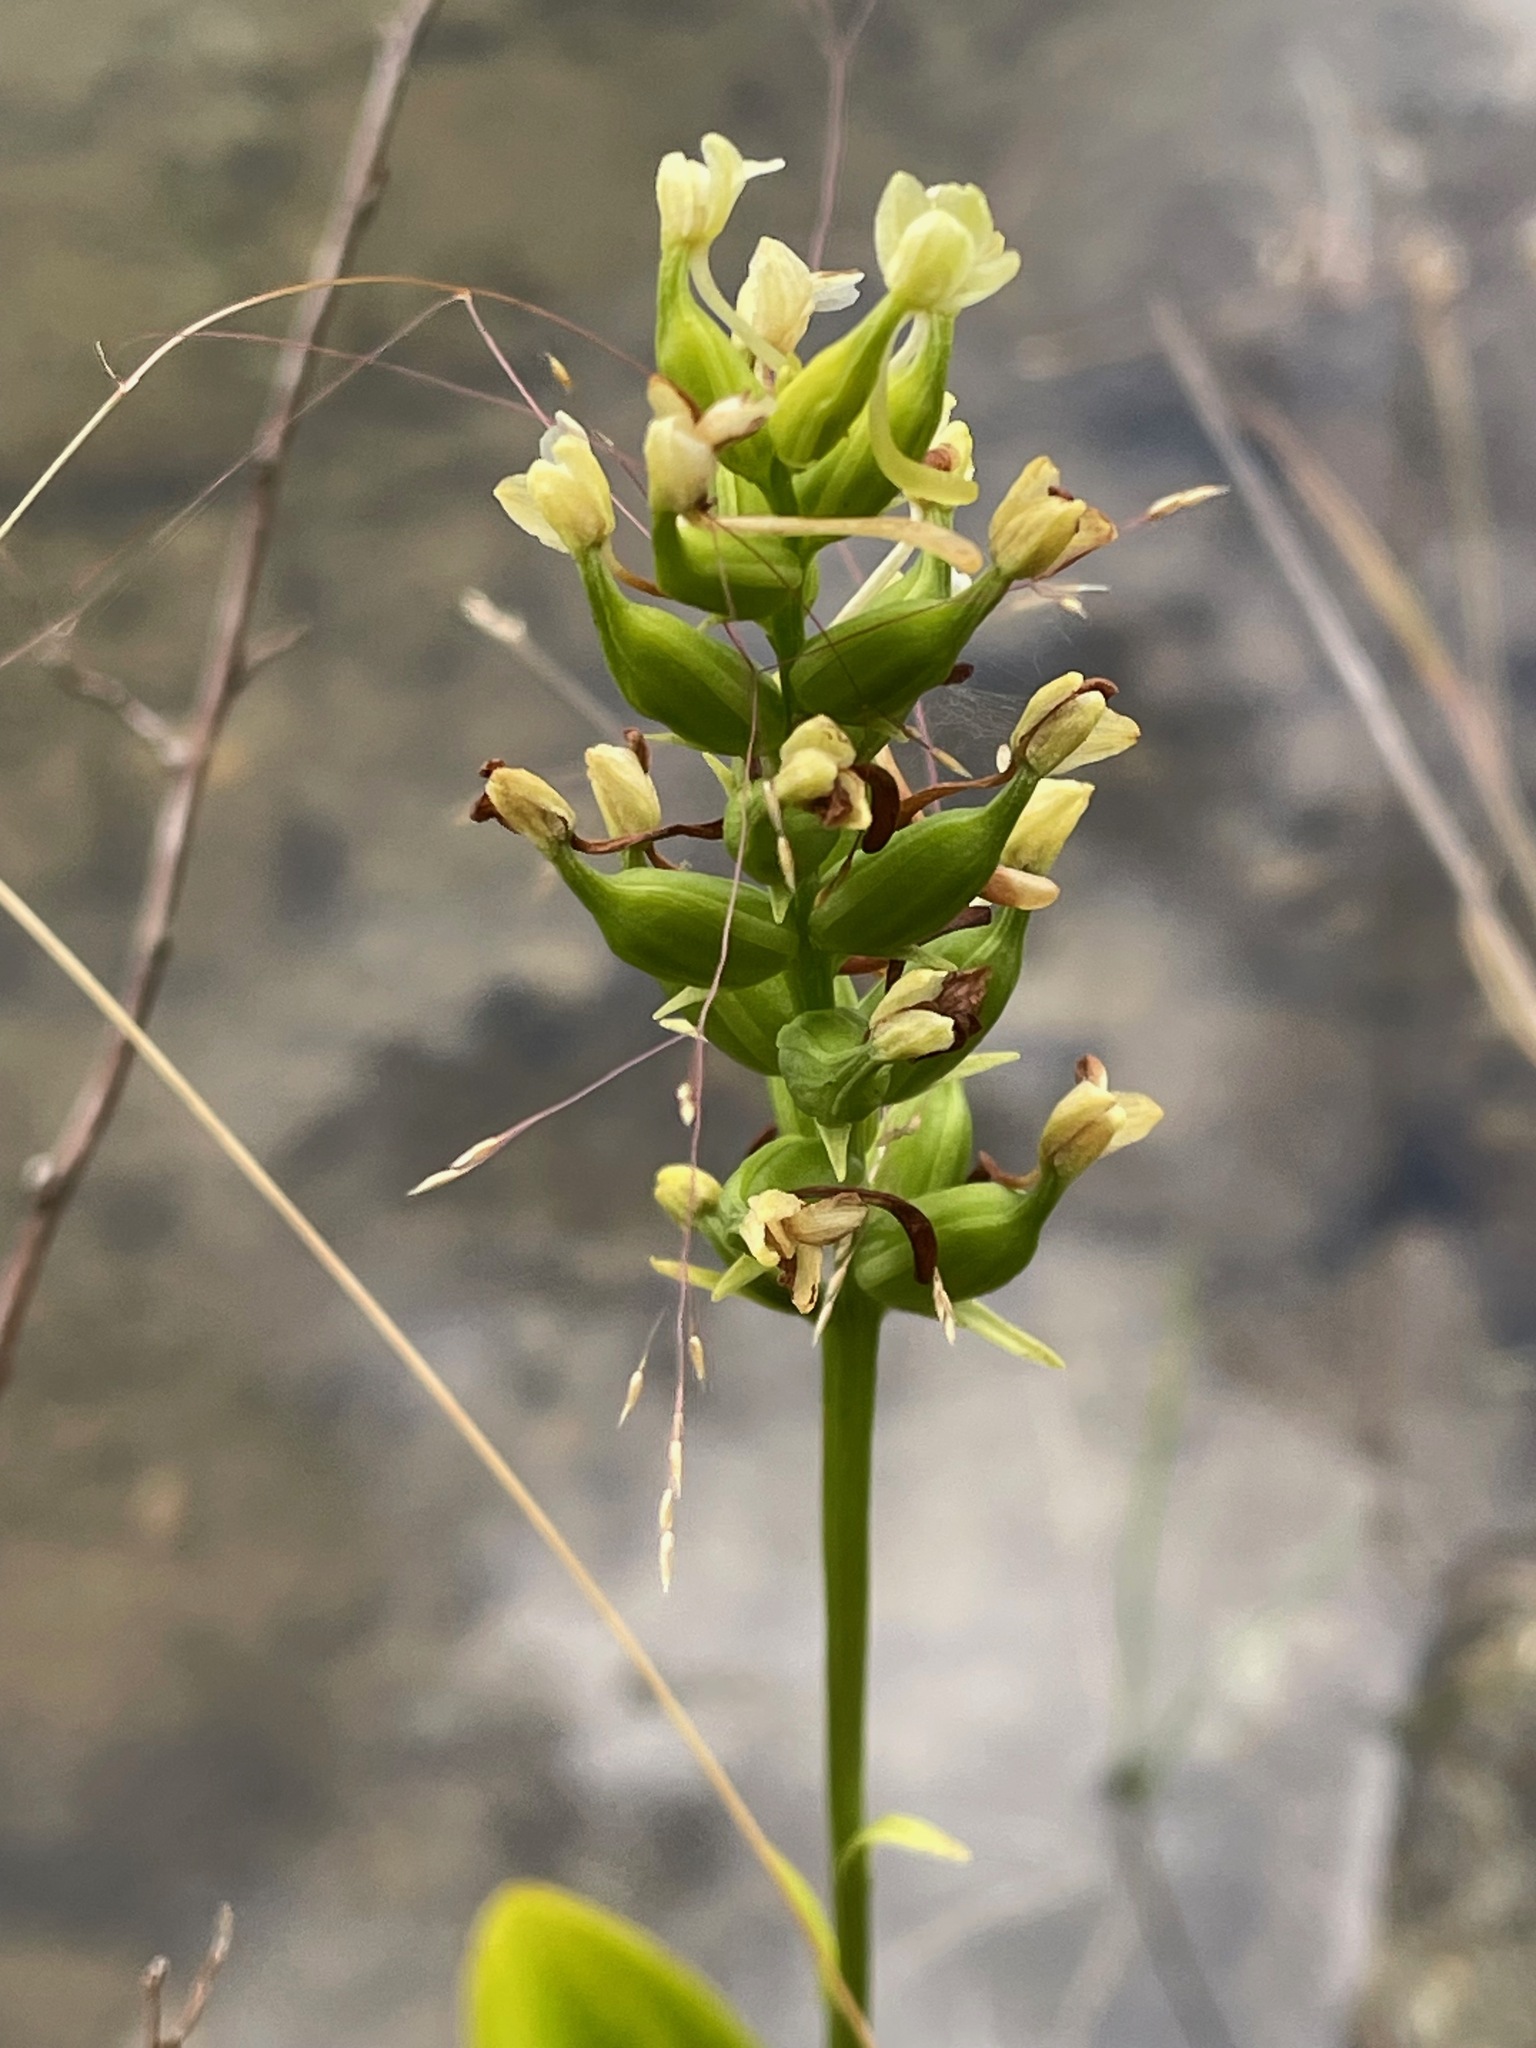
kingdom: Plantae
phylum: Tracheophyta
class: Liliopsida
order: Asparagales
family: Orchidaceae
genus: Platanthera
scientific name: Platanthera clavellata
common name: Club-spur orchid
